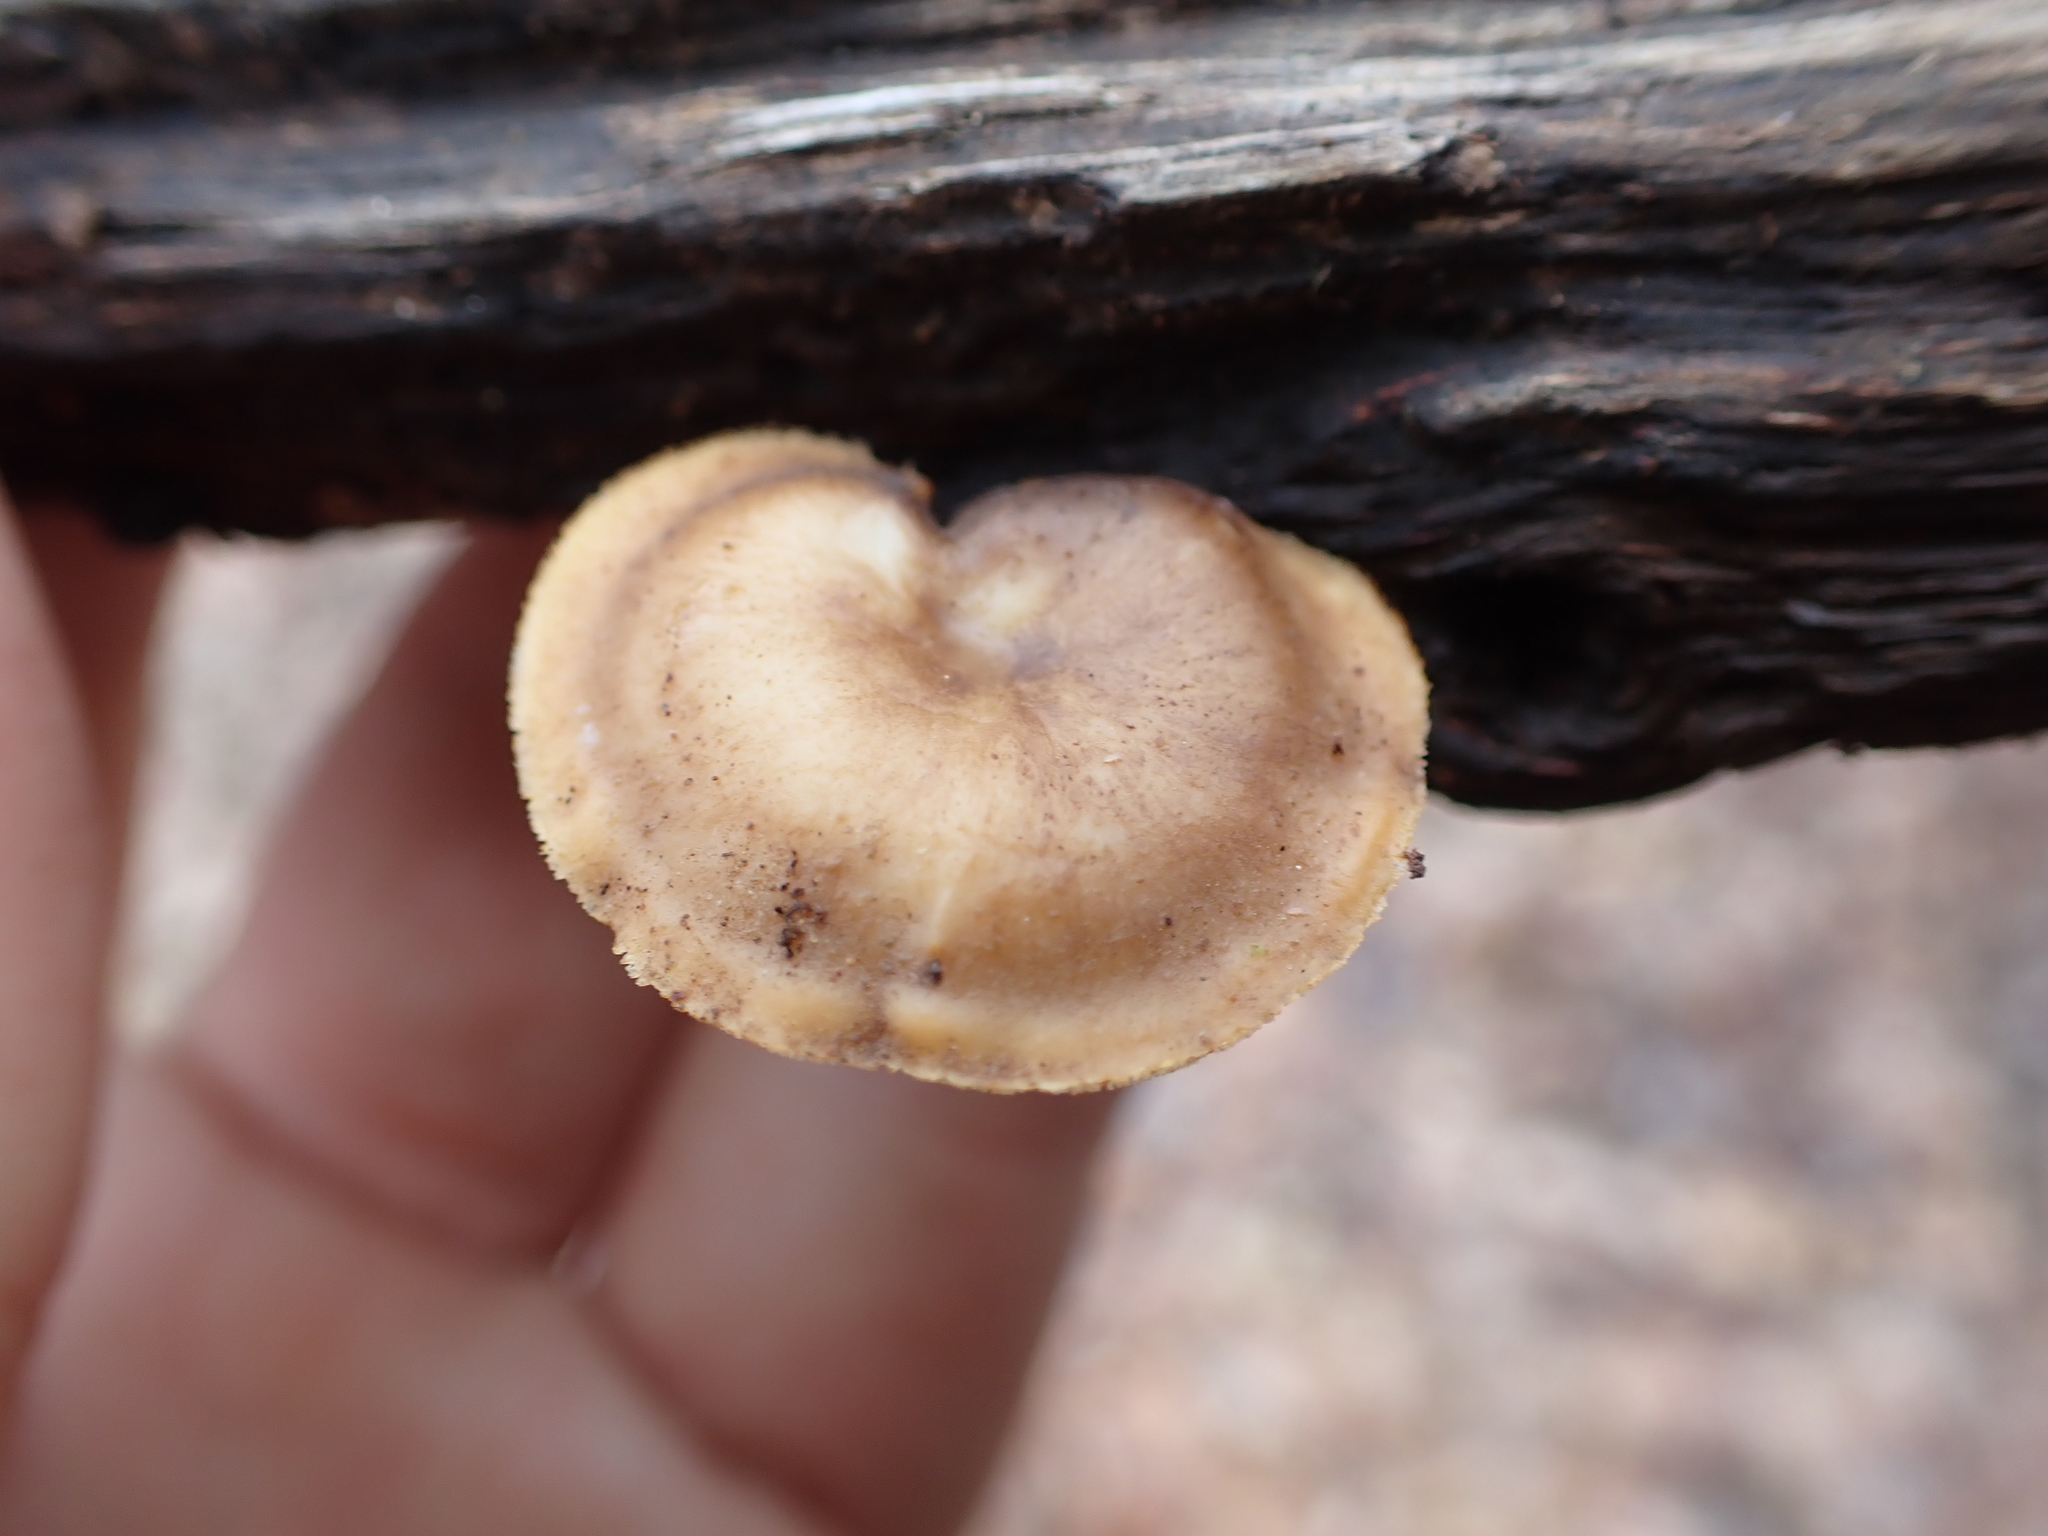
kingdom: Fungi
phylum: Basidiomycota
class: Agaricomycetes
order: Polyporales
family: Polyporaceae
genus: Lentinus
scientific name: Lentinus arcularius
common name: Spring polypore
